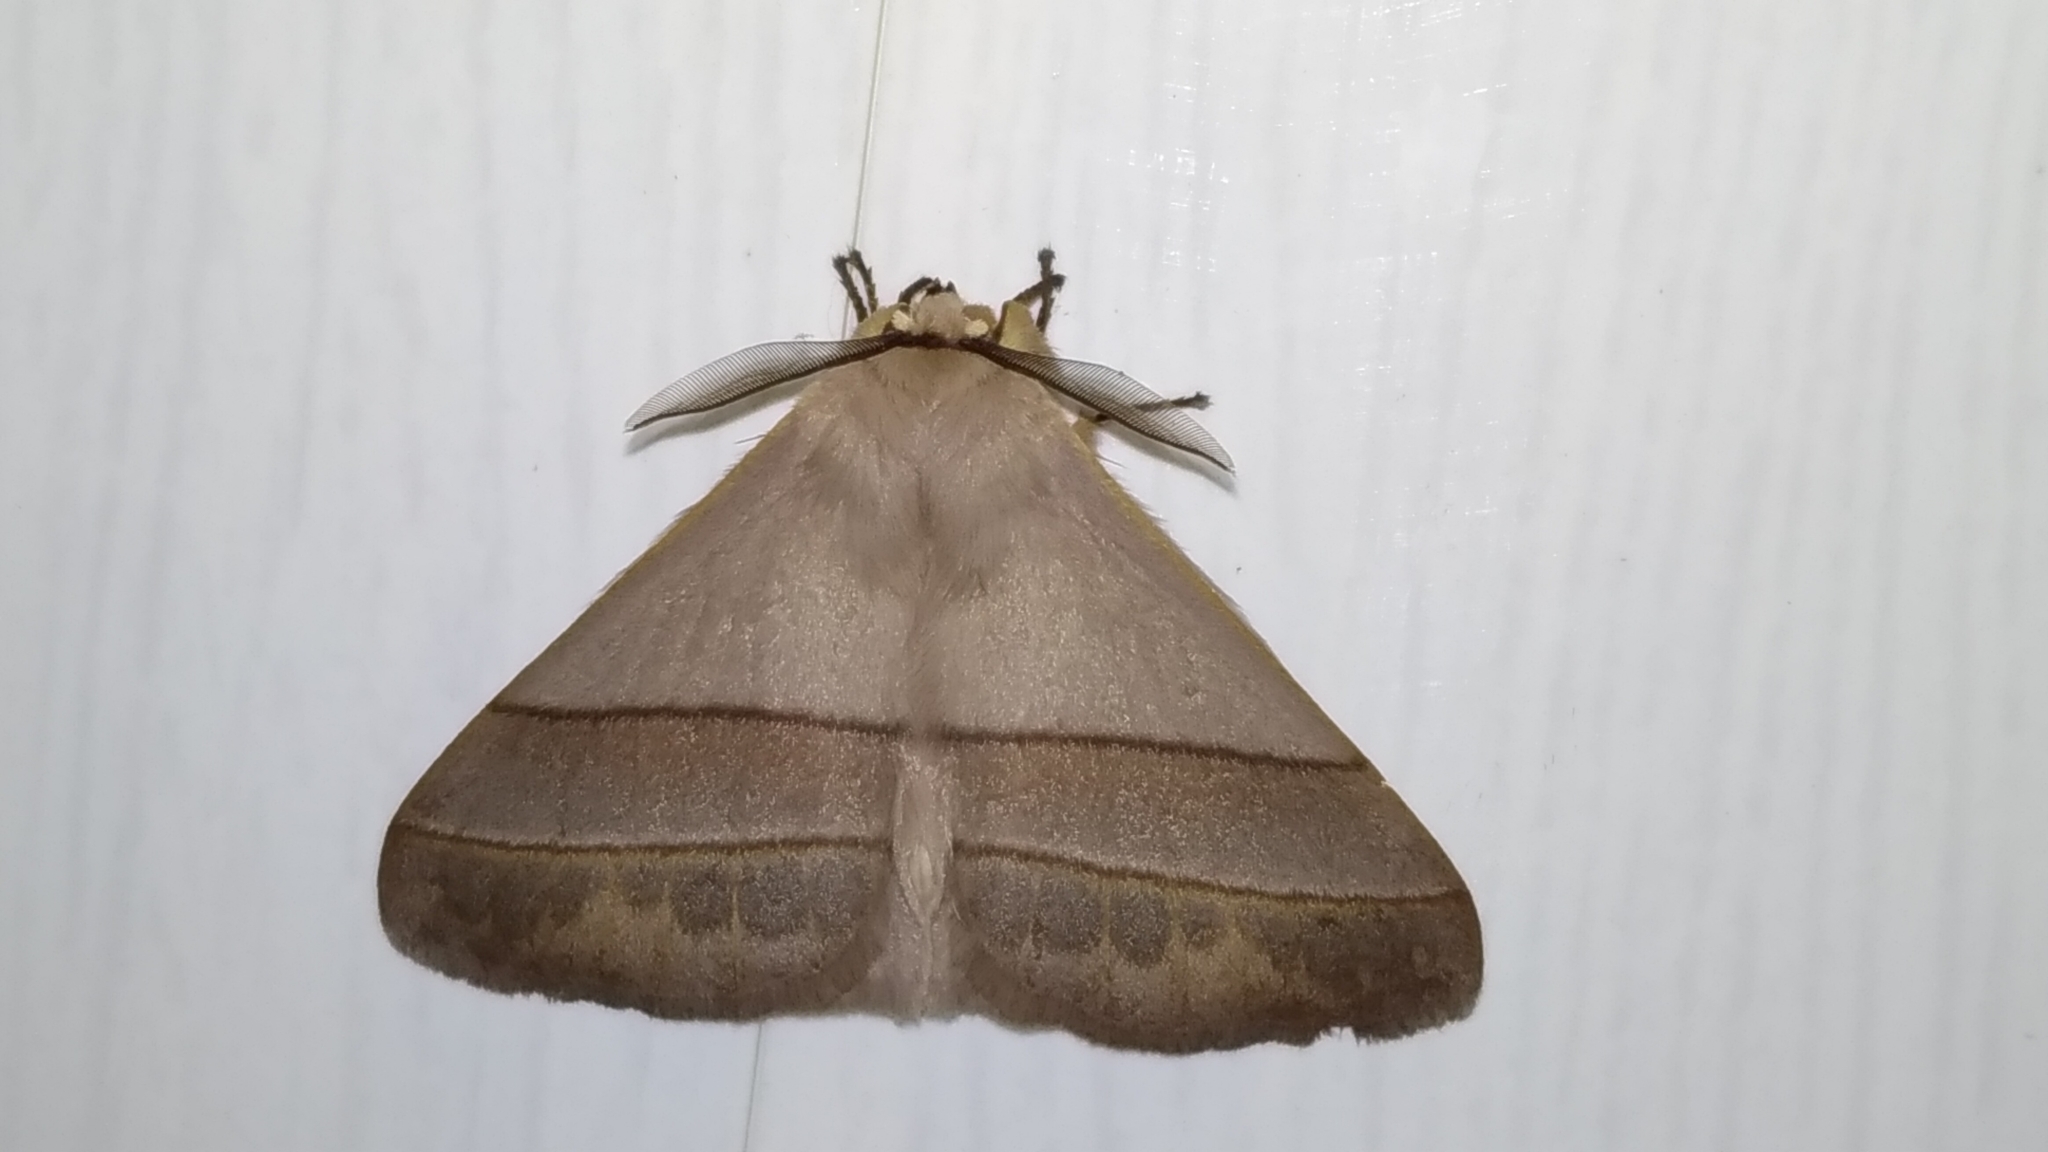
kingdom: Animalia
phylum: Arthropoda
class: Insecta
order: Lepidoptera
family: Eupterotidae
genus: Palirisa
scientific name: Palirisa cervina
